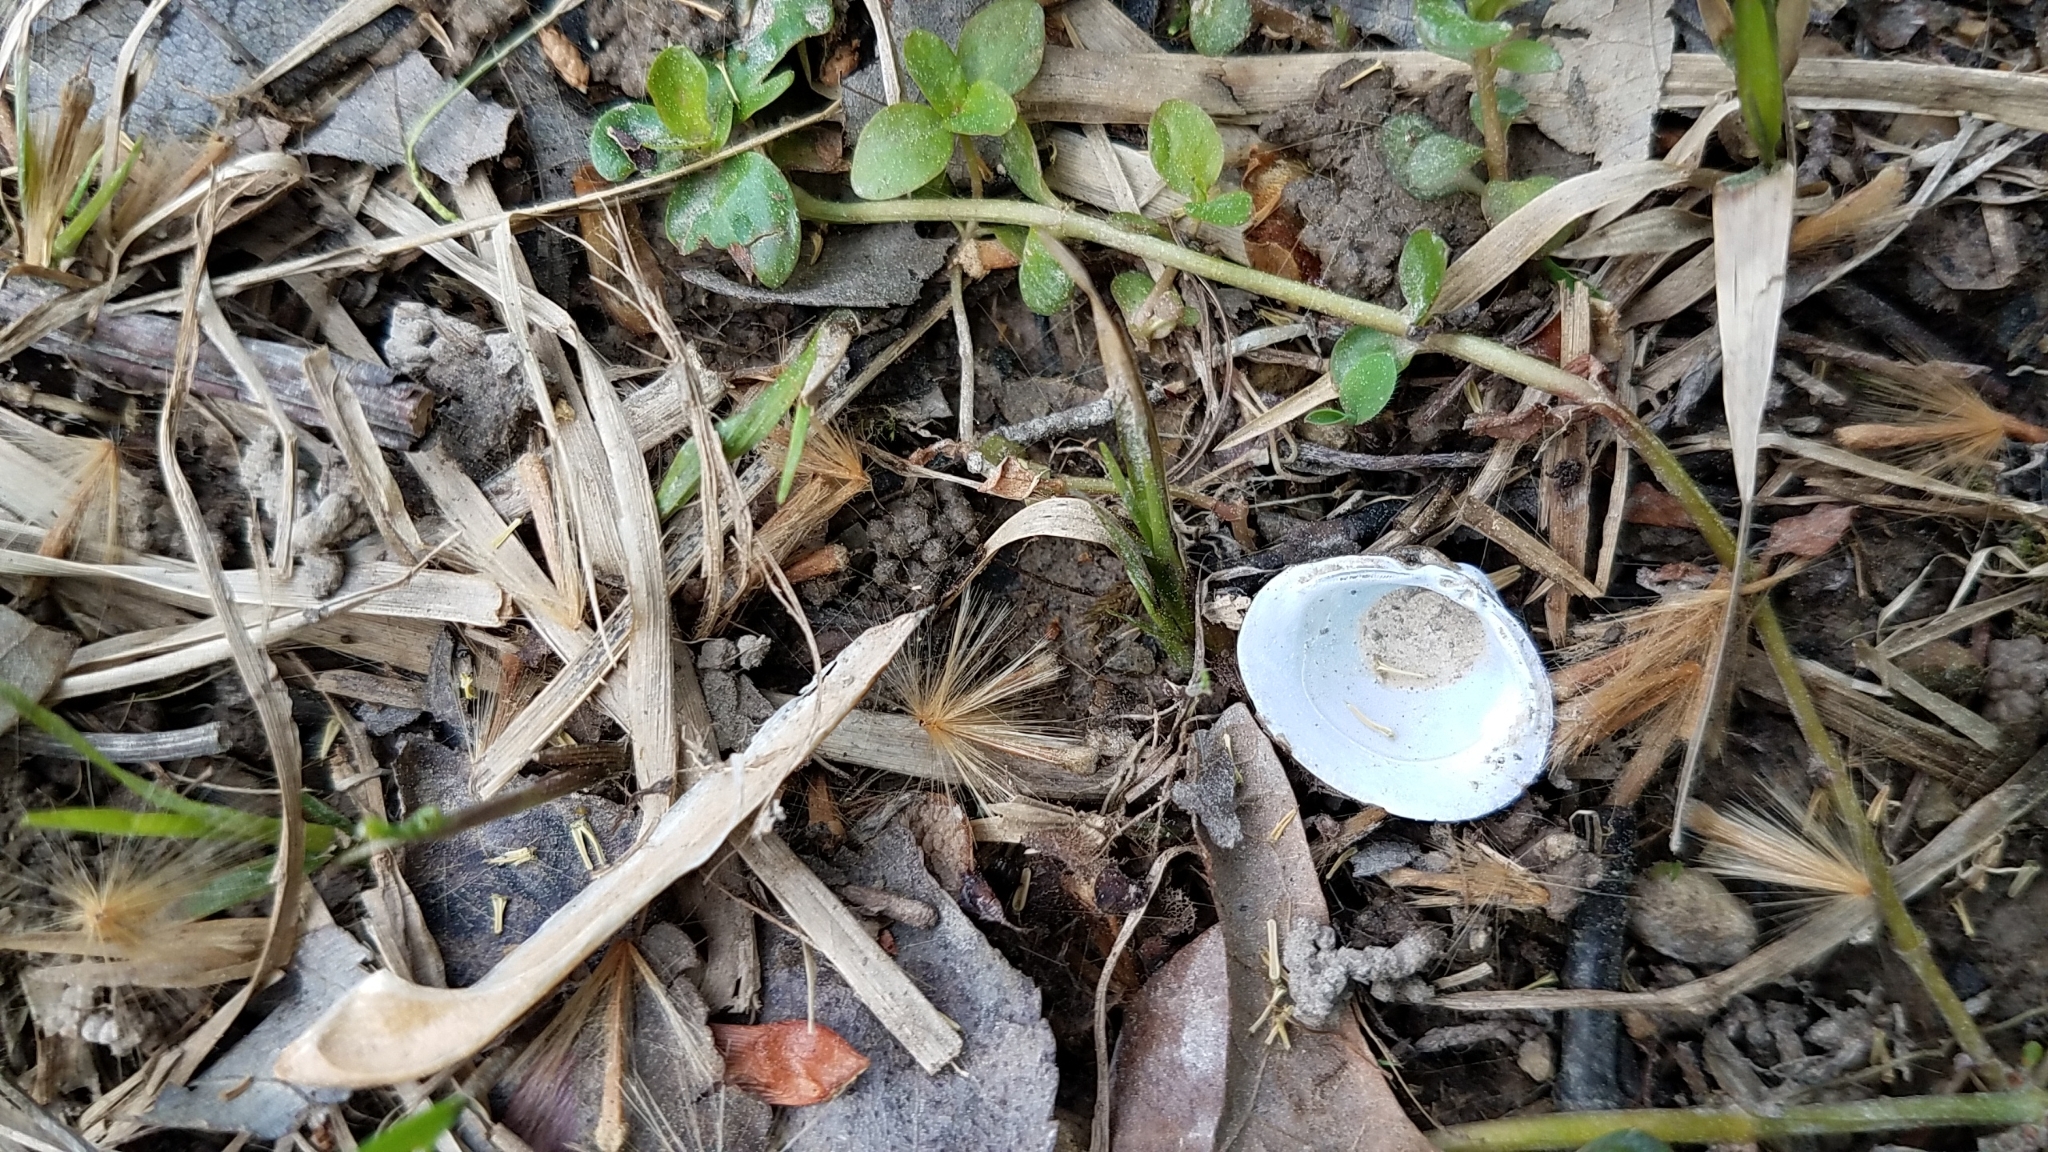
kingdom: Animalia
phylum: Mollusca
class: Bivalvia
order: Venerida
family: Cyrenidae
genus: Corbicula
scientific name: Corbicula fluminea
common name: Asian clam
